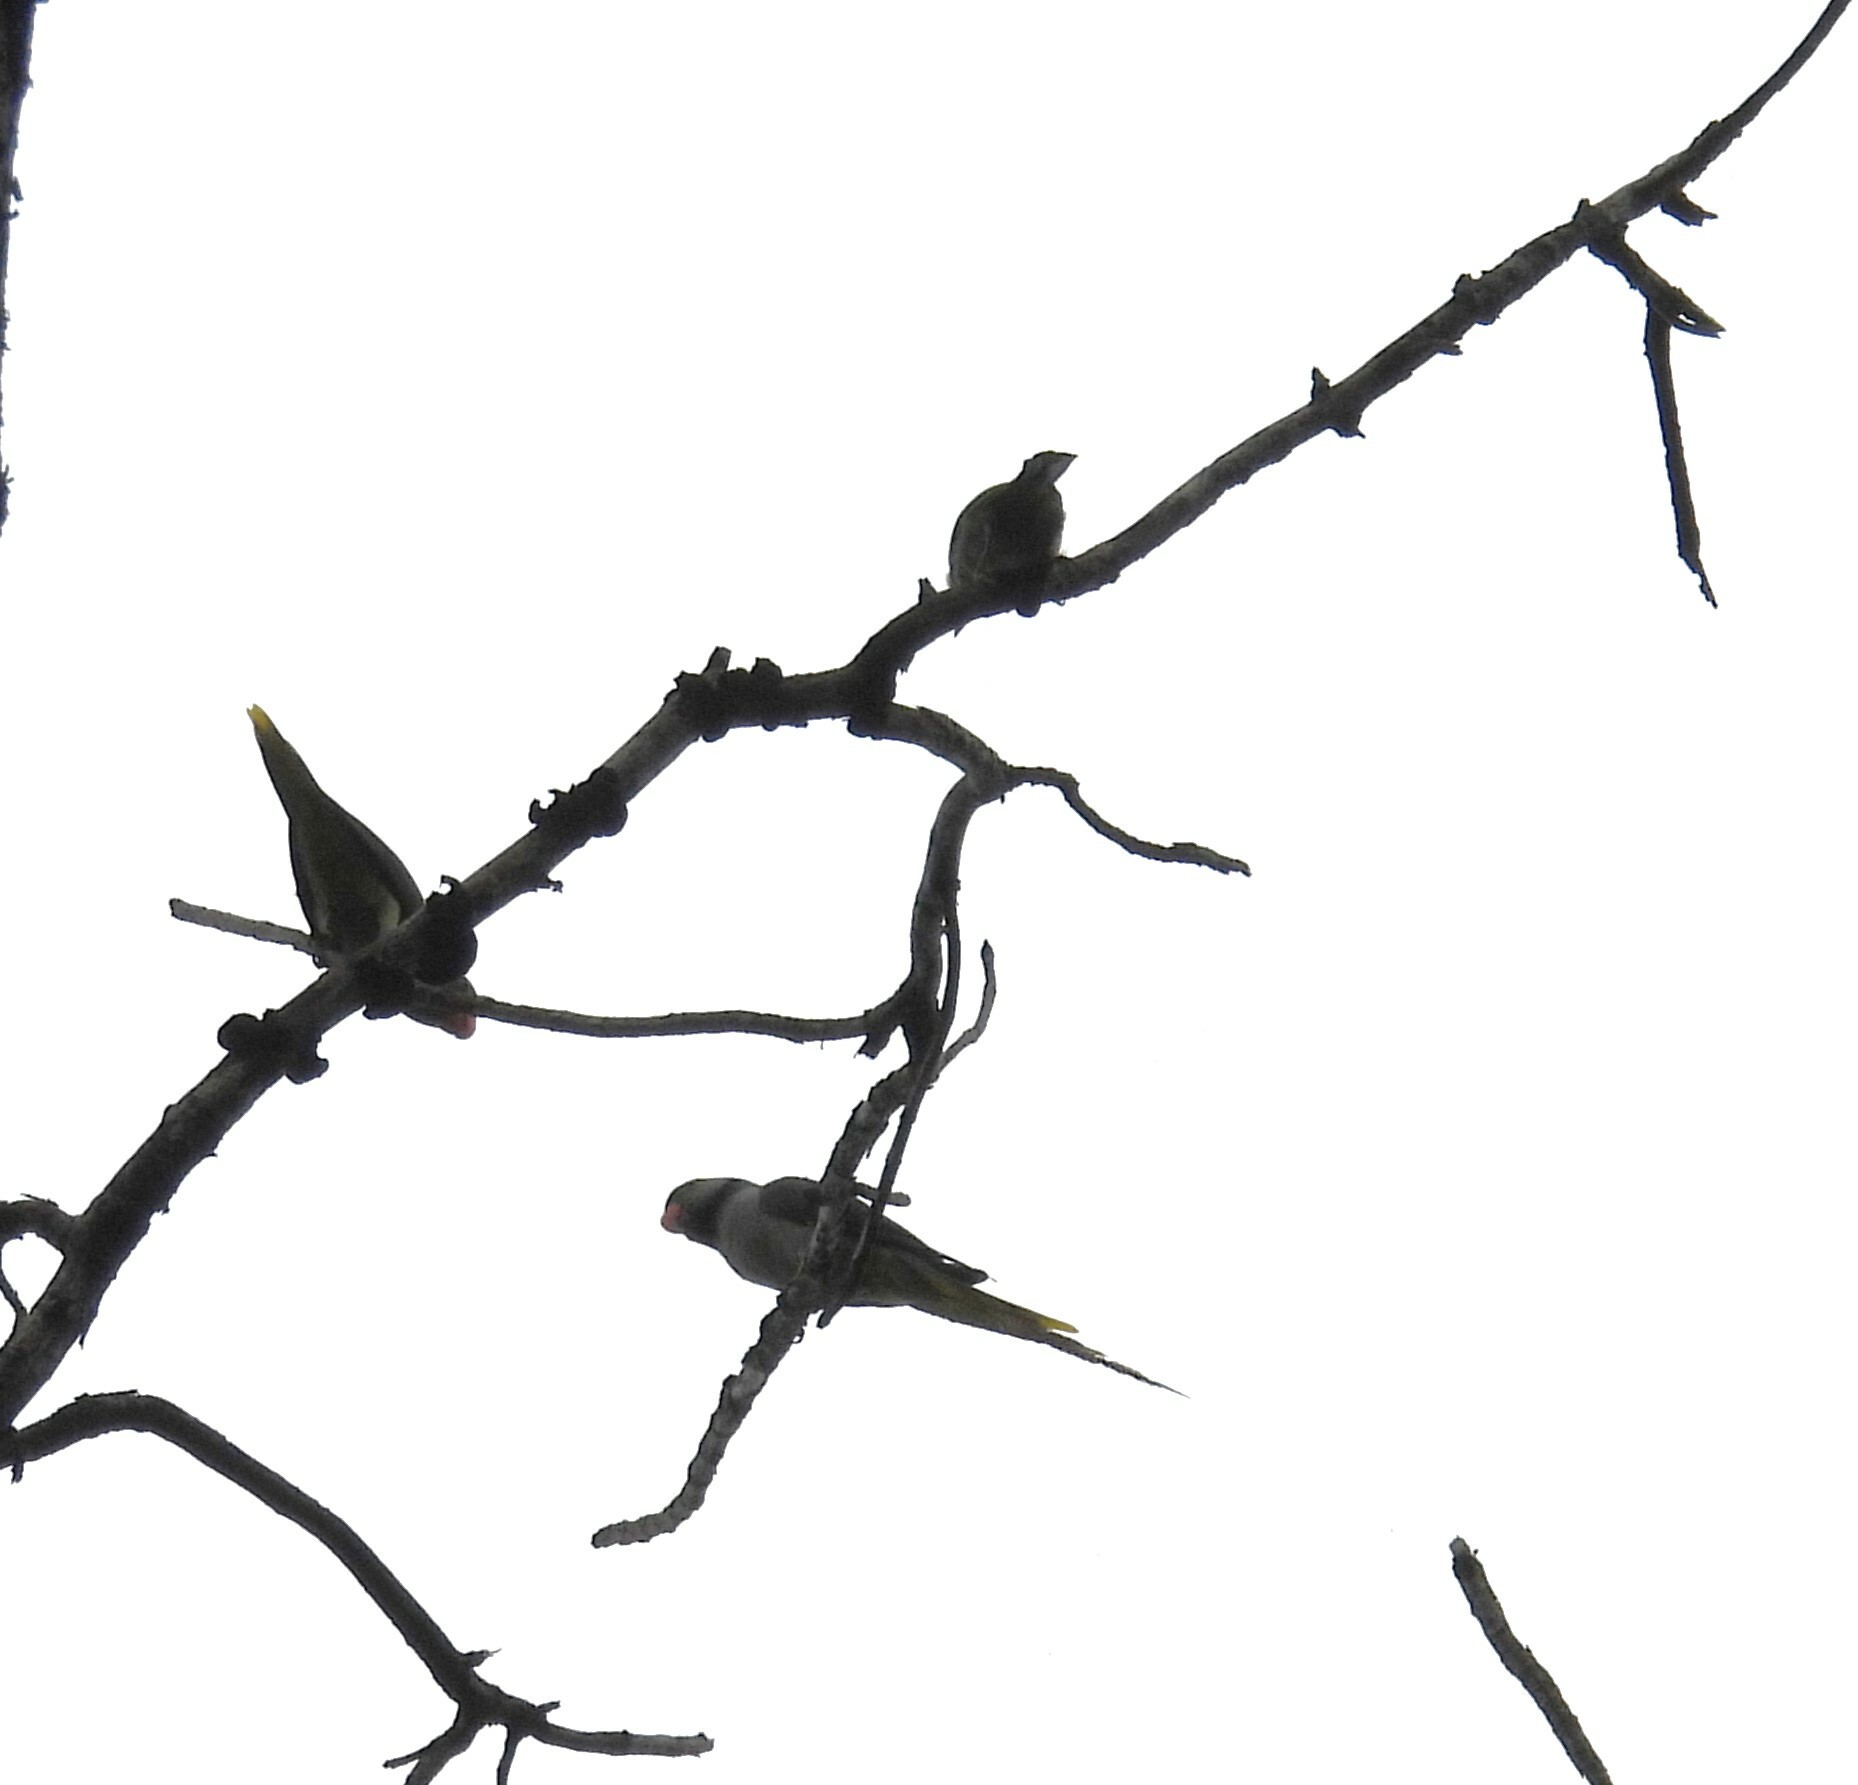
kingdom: Animalia
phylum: Chordata
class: Aves
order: Psittaciformes
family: Psittacidae
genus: Psittacula
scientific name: Psittacula columboides
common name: Blue-winged parakeet
